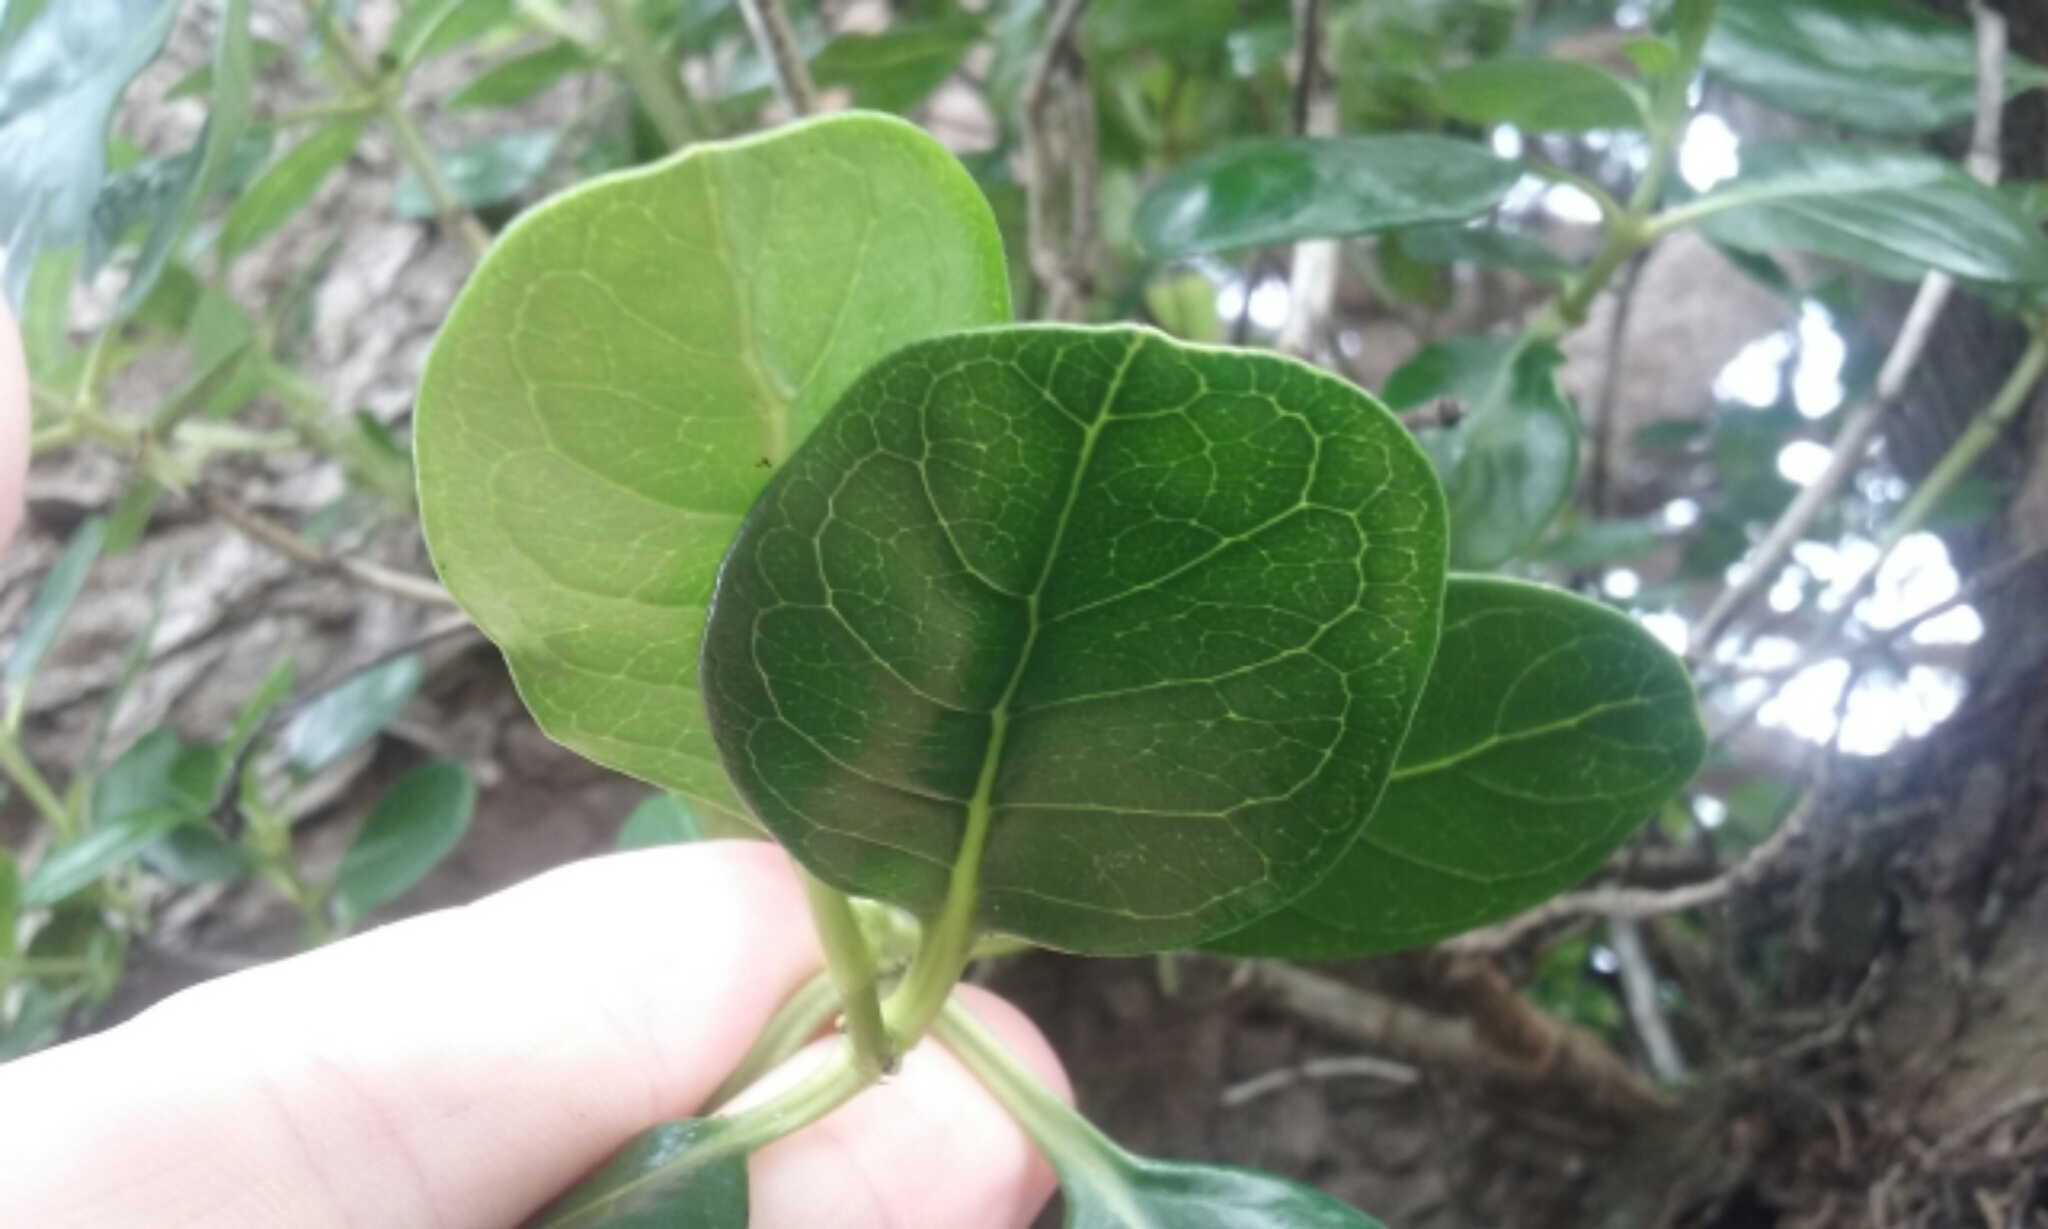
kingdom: Plantae
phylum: Tracheophyta
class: Magnoliopsida
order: Gentianales
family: Rubiaceae
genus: Coprosma
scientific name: Coprosma repens
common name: Tree bedstraw
